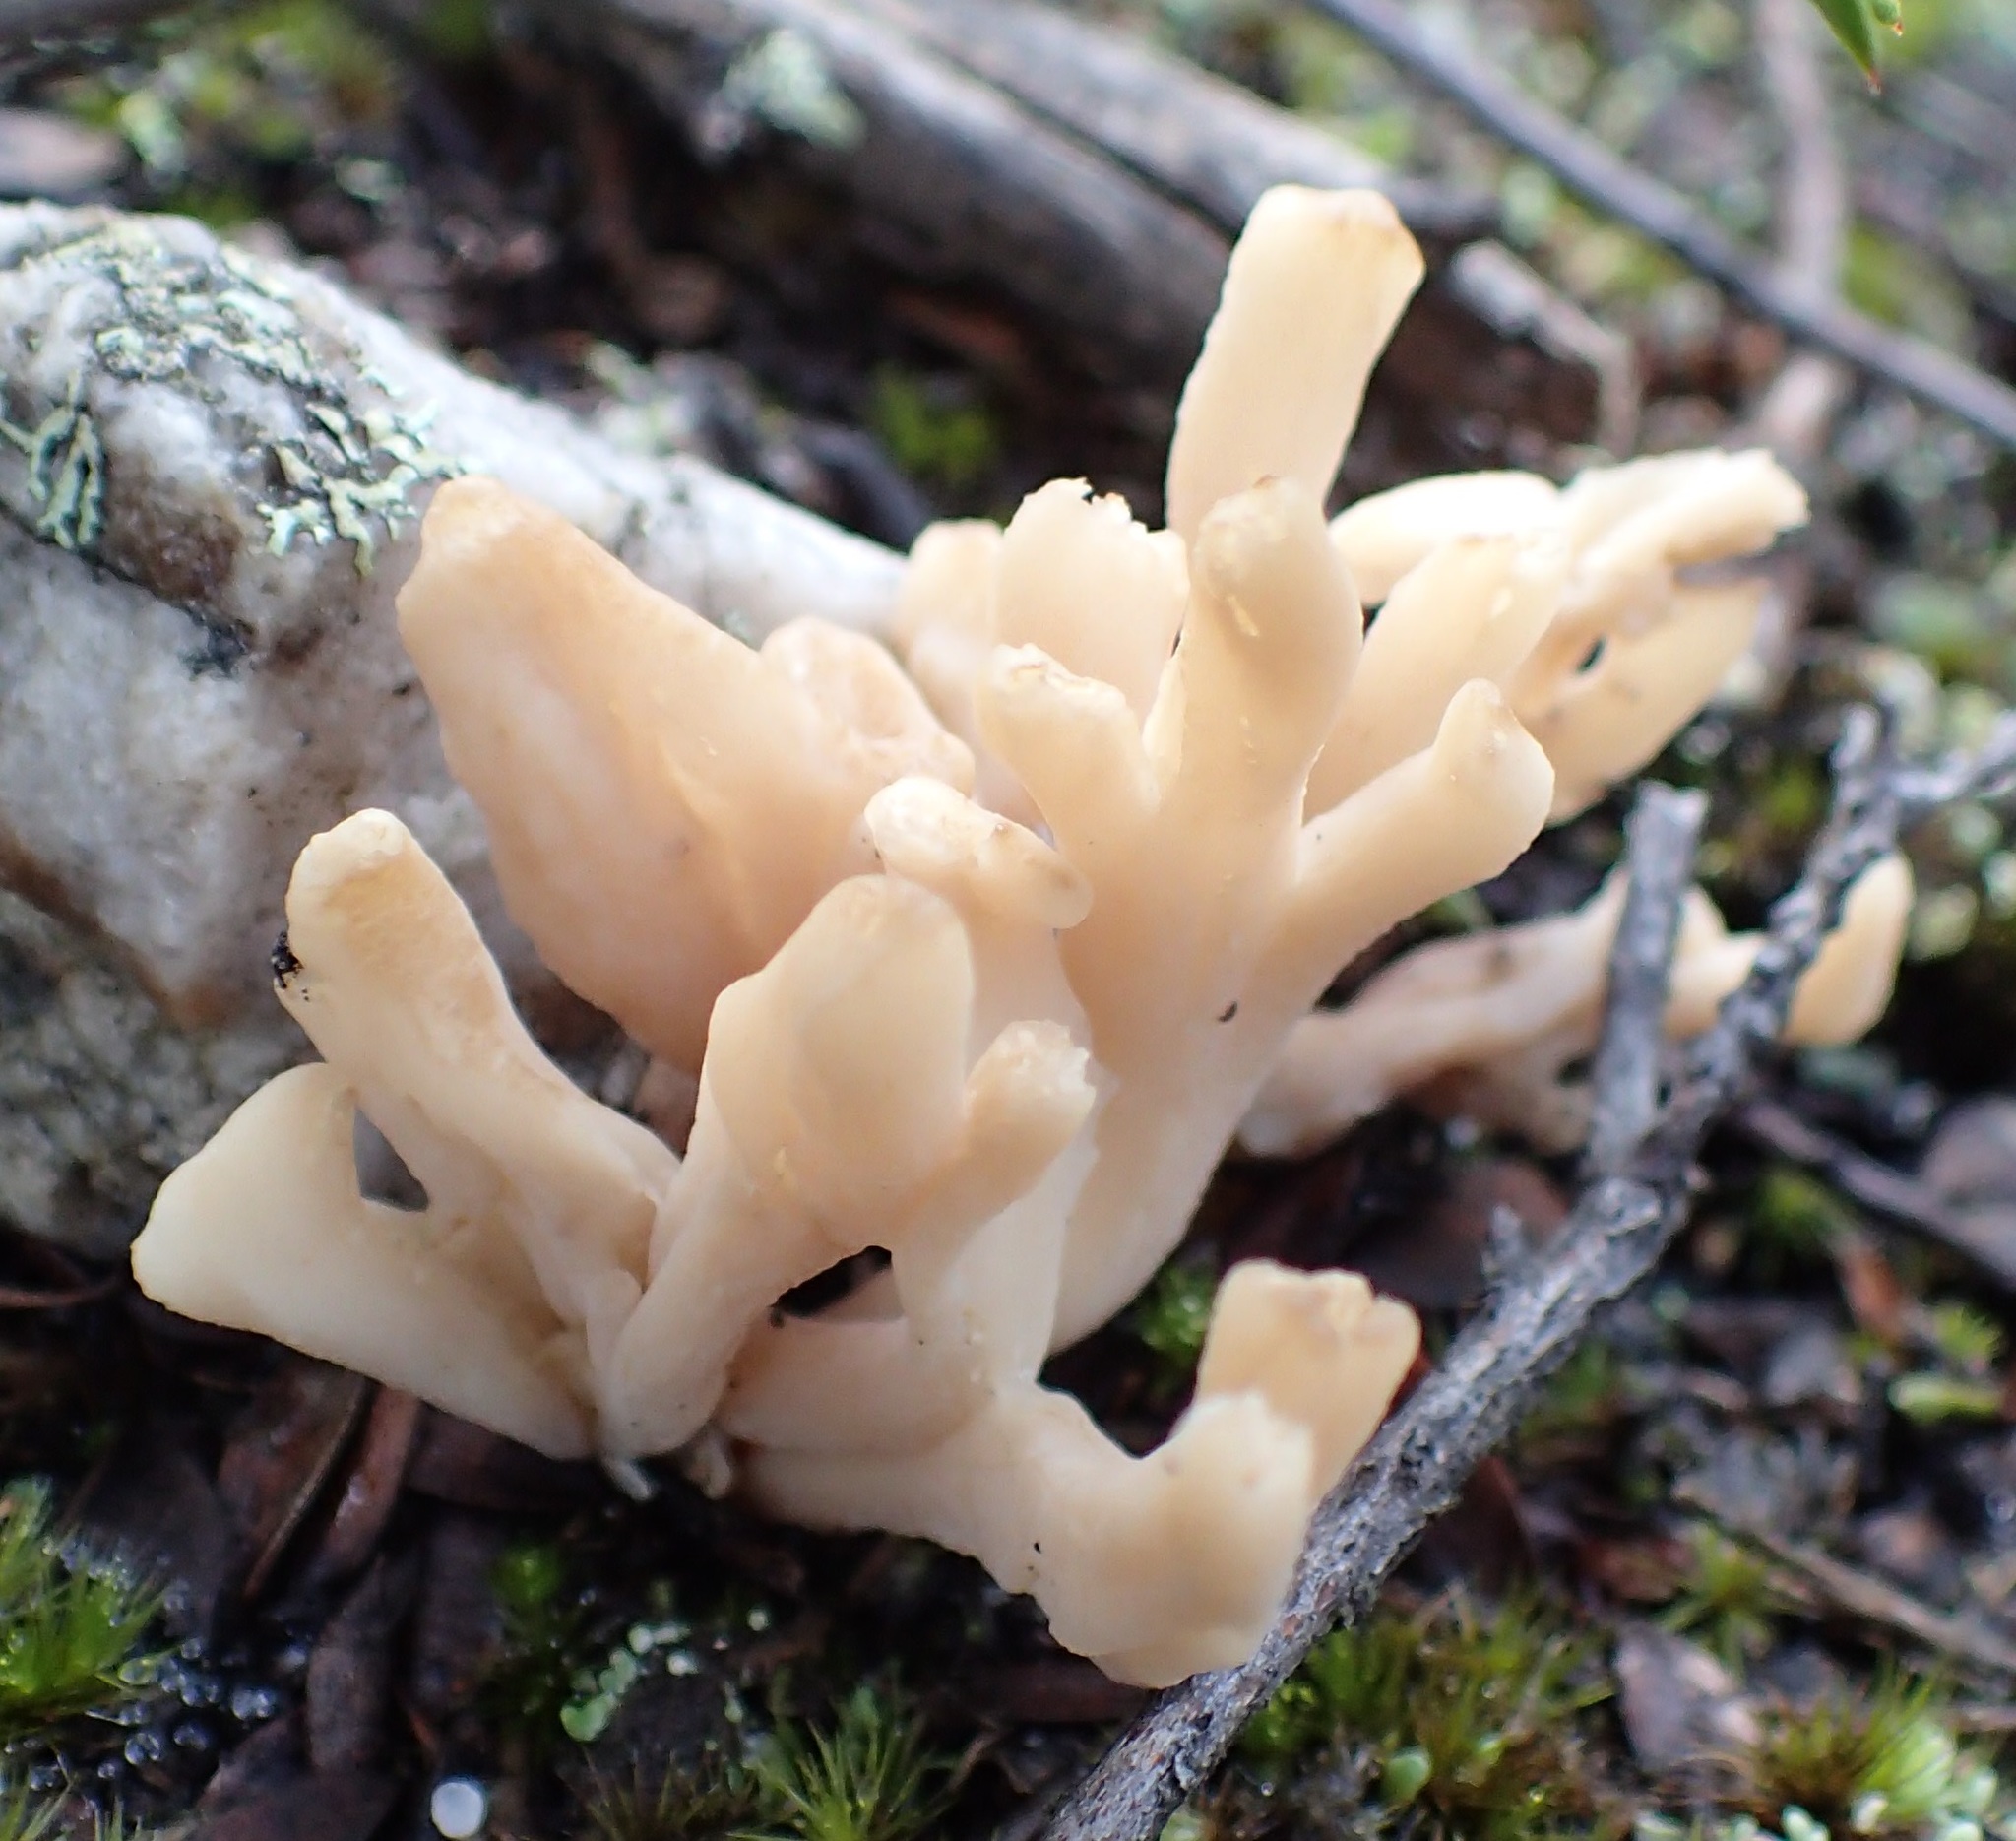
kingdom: Fungi
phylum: Basidiomycota
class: Agaricomycetes
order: Cantharellales
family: Hydnaceae
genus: Clavulina
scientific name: Clavulina subrugosa
